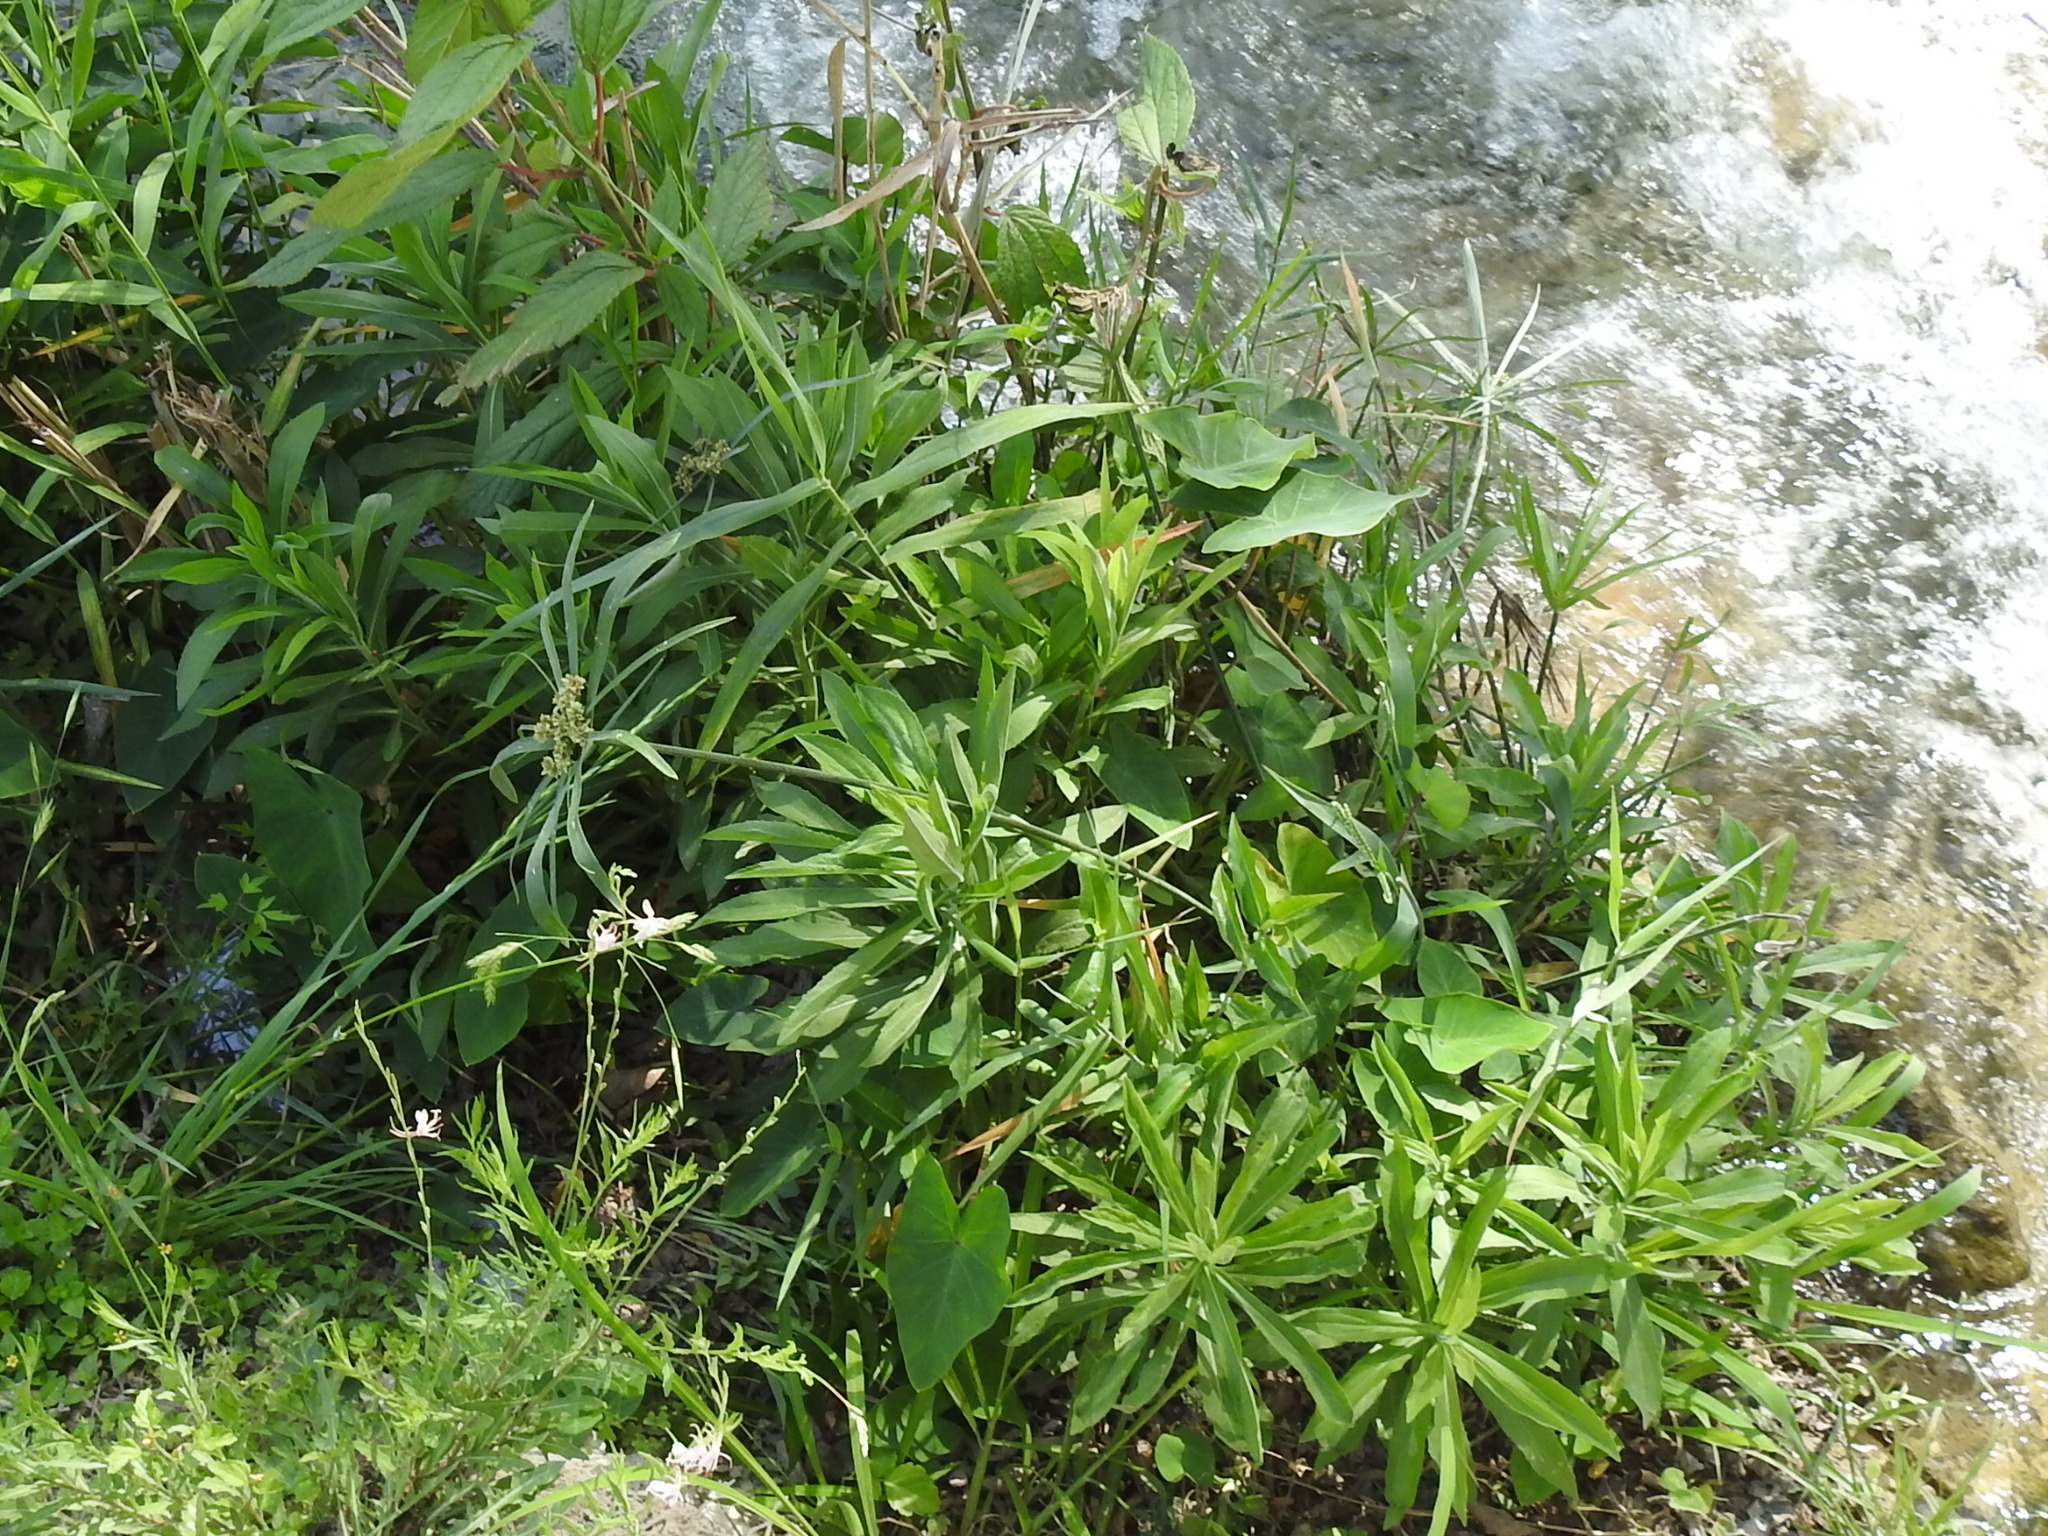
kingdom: Plantae
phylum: Tracheophyta
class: Liliopsida
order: Poales
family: Cyperaceae
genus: Cyperus
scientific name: Cyperus alternifolius
